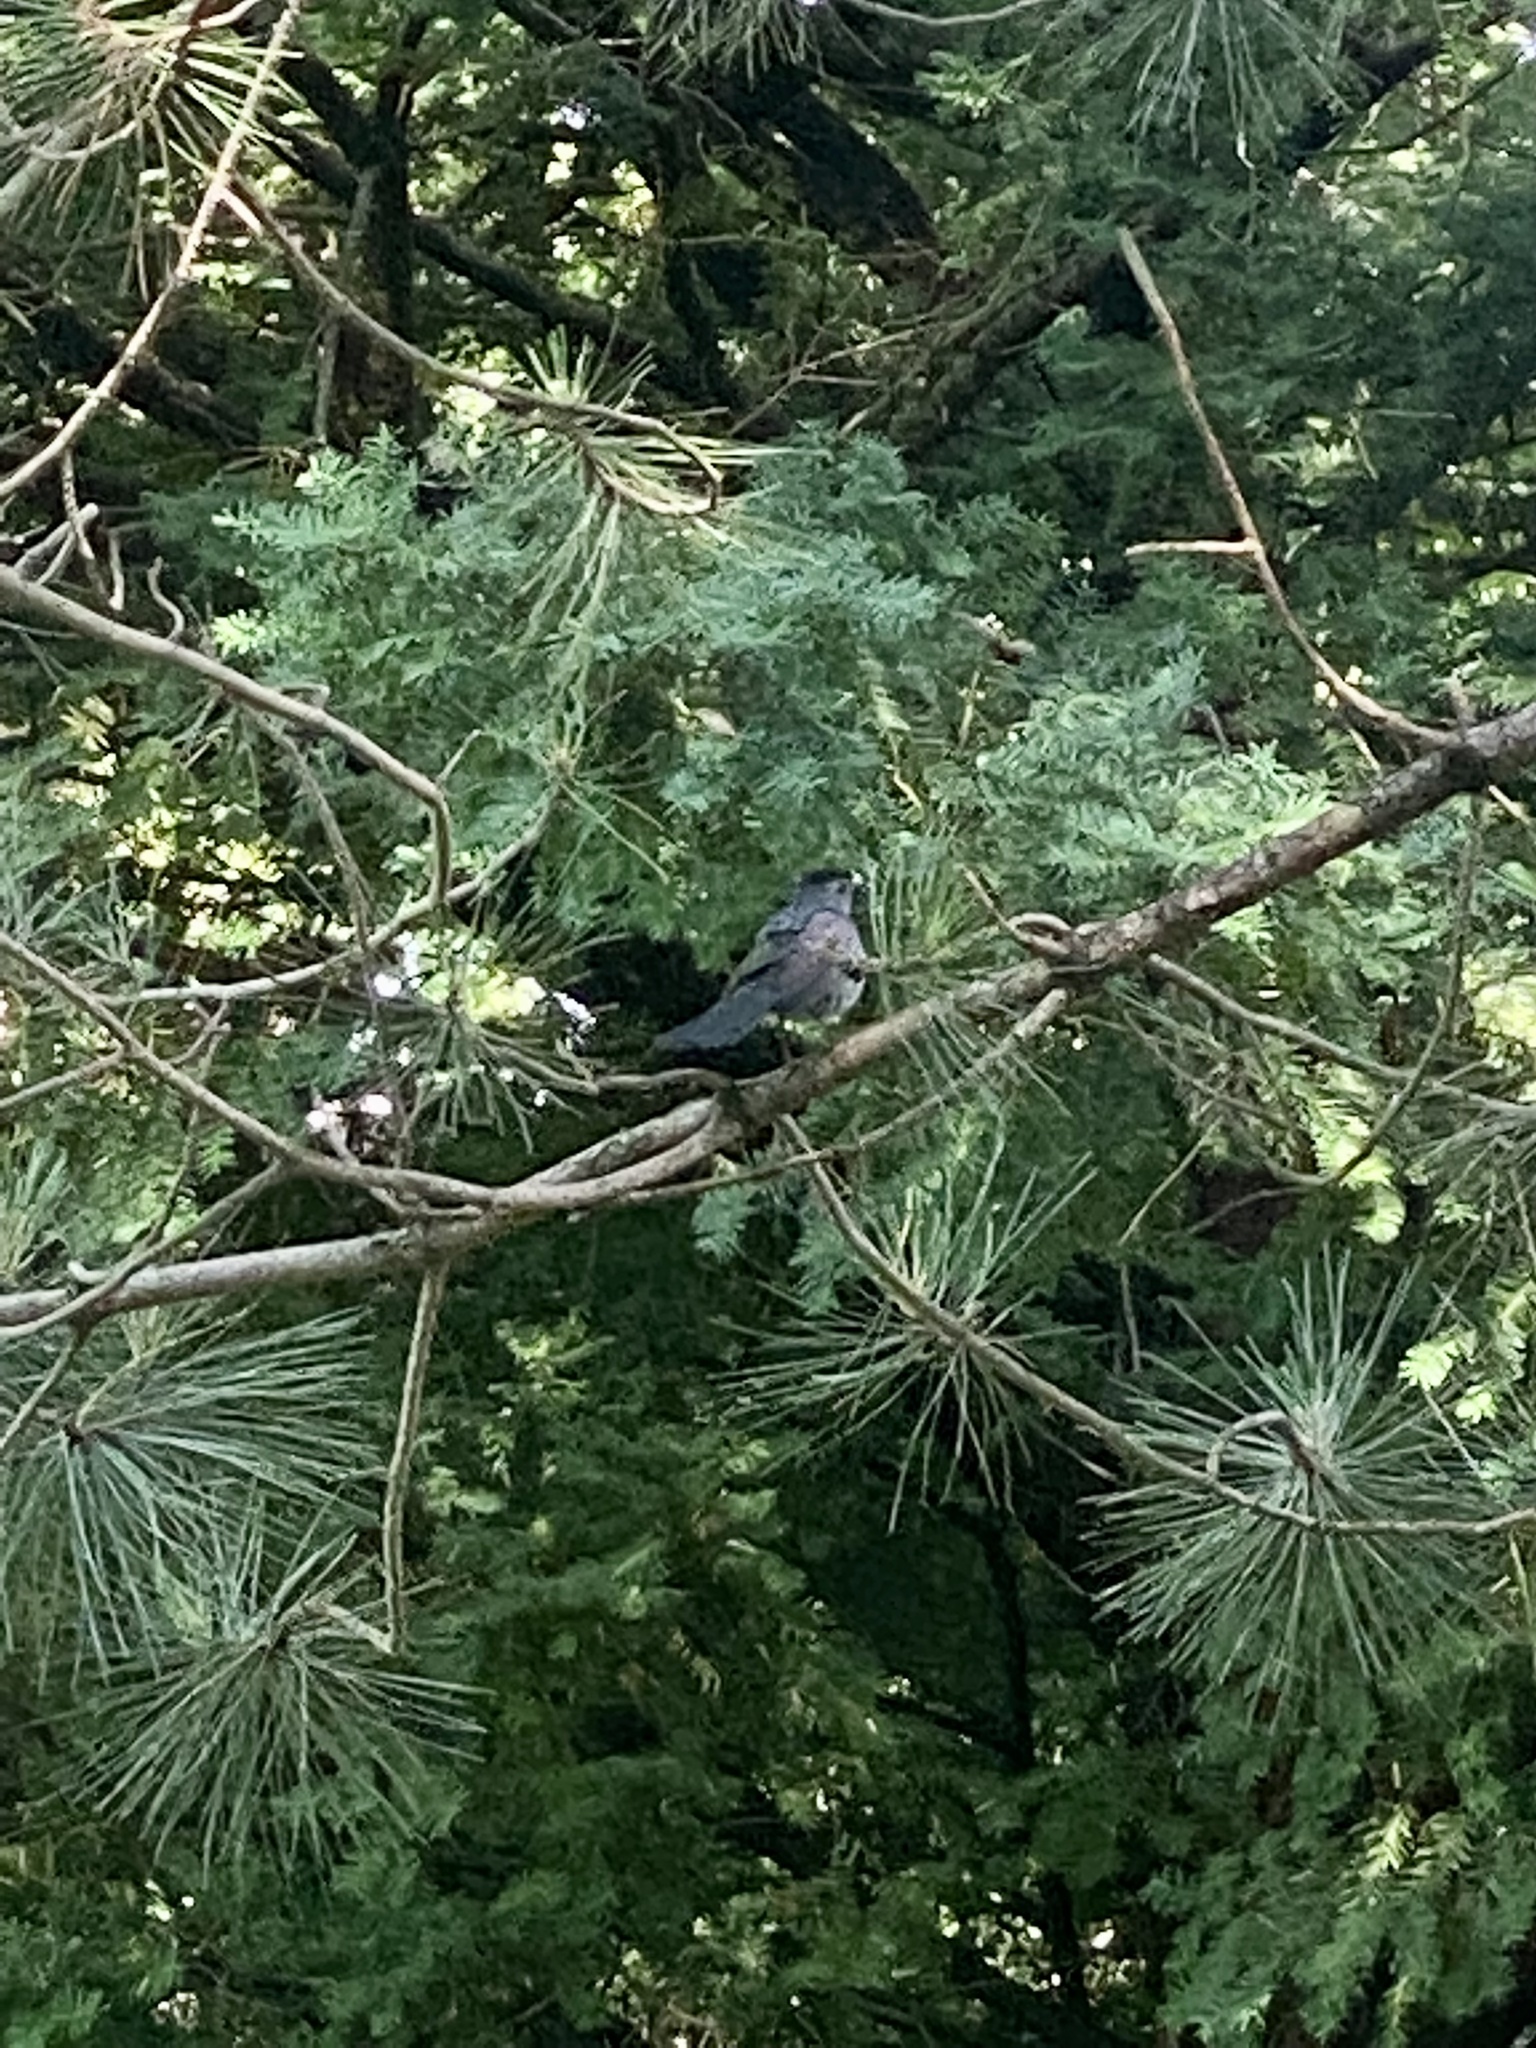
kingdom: Animalia
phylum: Chordata
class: Aves
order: Passeriformes
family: Mimidae
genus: Dumetella
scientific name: Dumetella carolinensis
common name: Gray catbird
